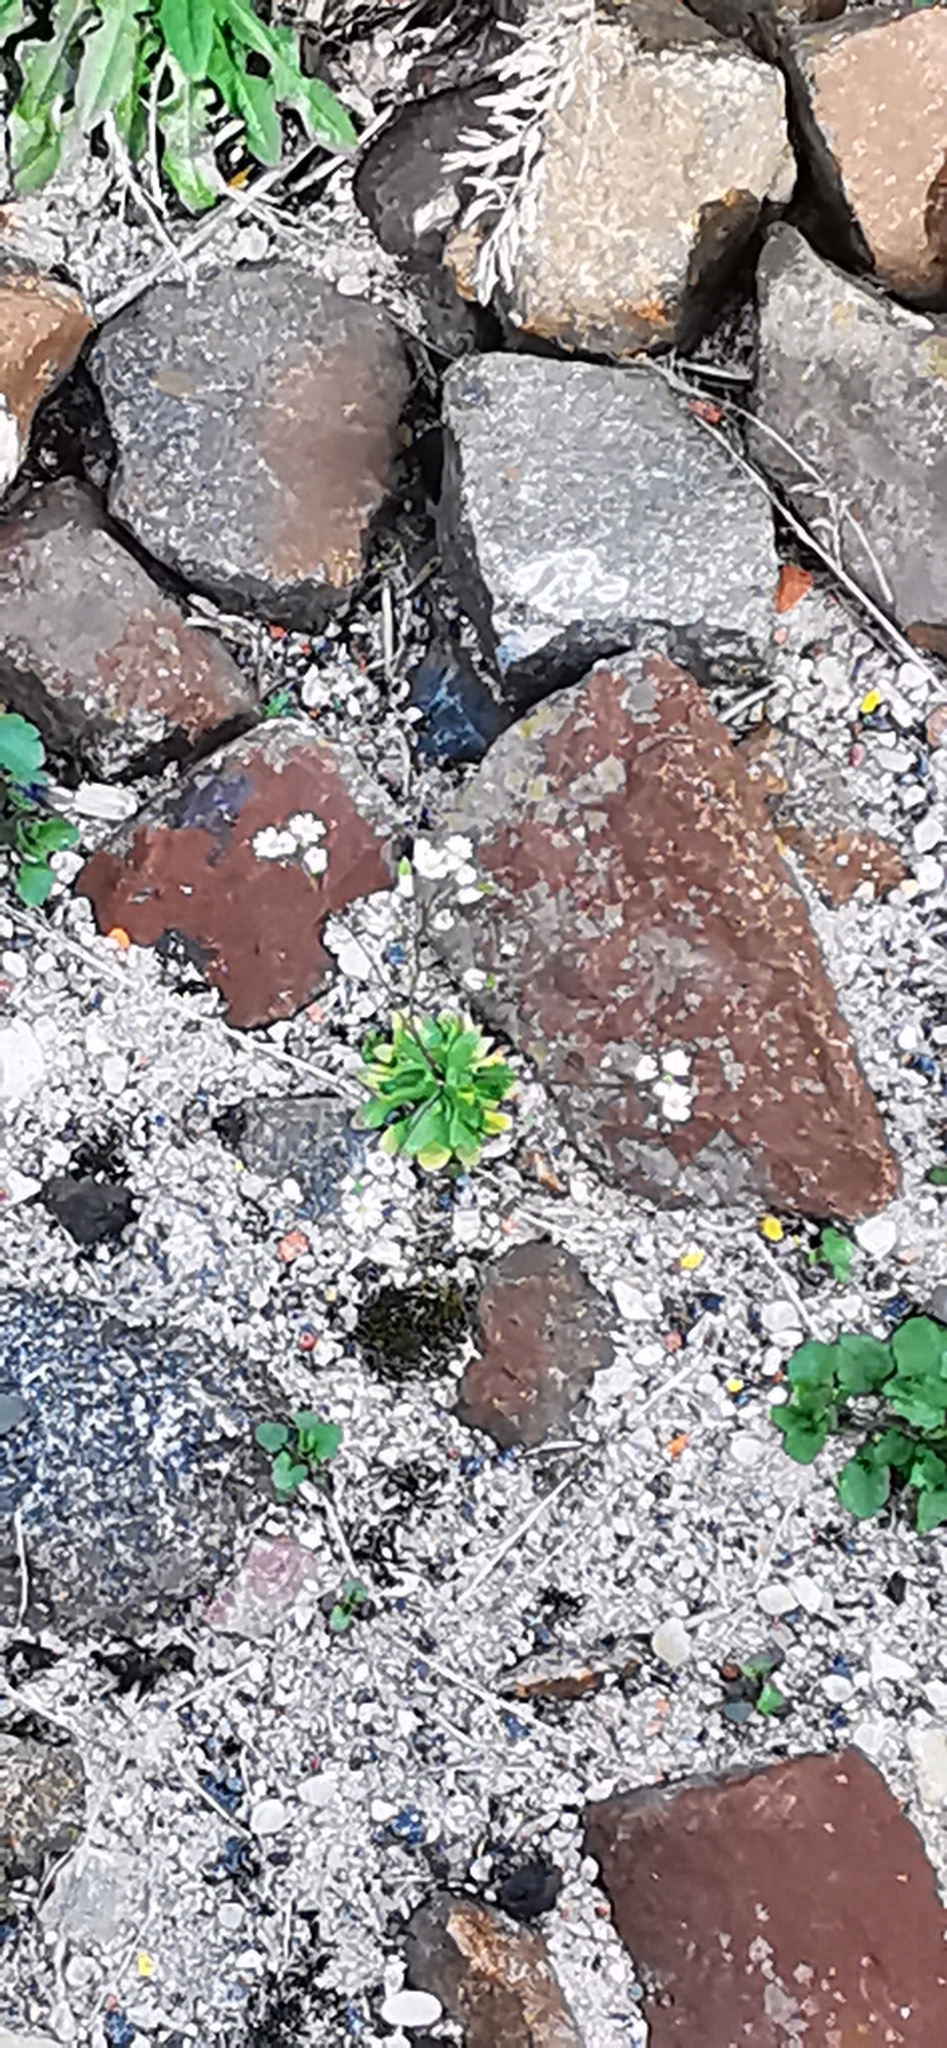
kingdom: Plantae
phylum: Tracheophyta
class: Magnoliopsida
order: Brassicales
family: Brassicaceae
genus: Draba
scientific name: Draba verna
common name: Spring draba
